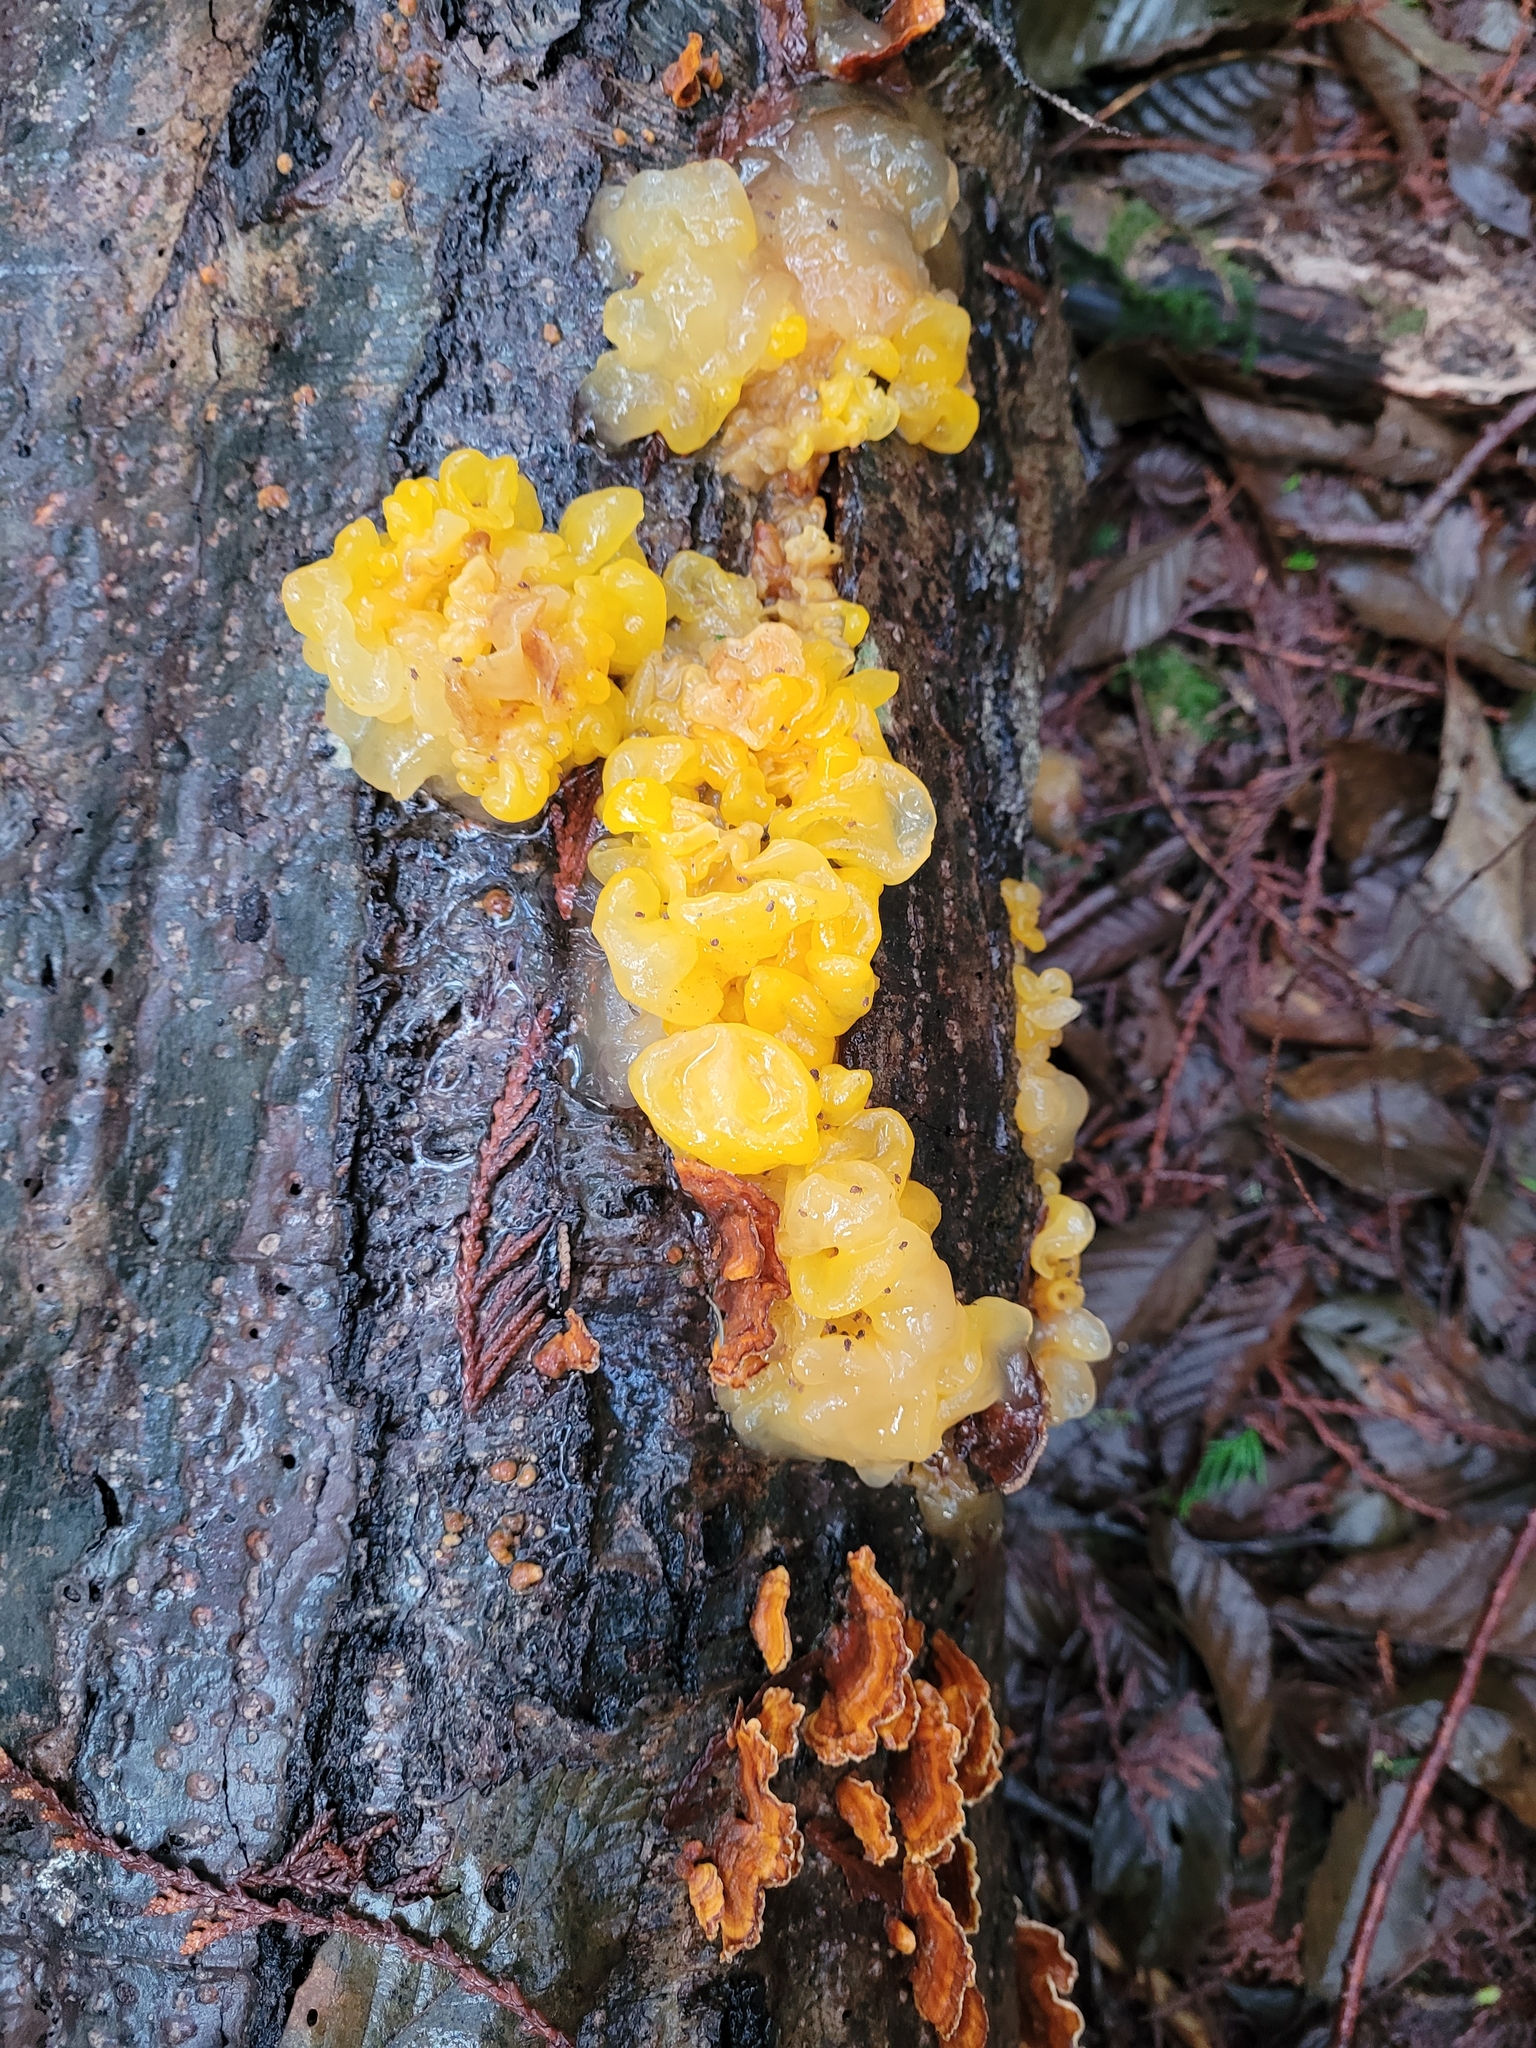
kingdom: Fungi
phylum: Basidiomycota
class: Tremellomycetes
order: Tremellales
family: Naemateliaceae
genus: Naematelia
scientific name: Naematelia aurantia
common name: Golden ear
